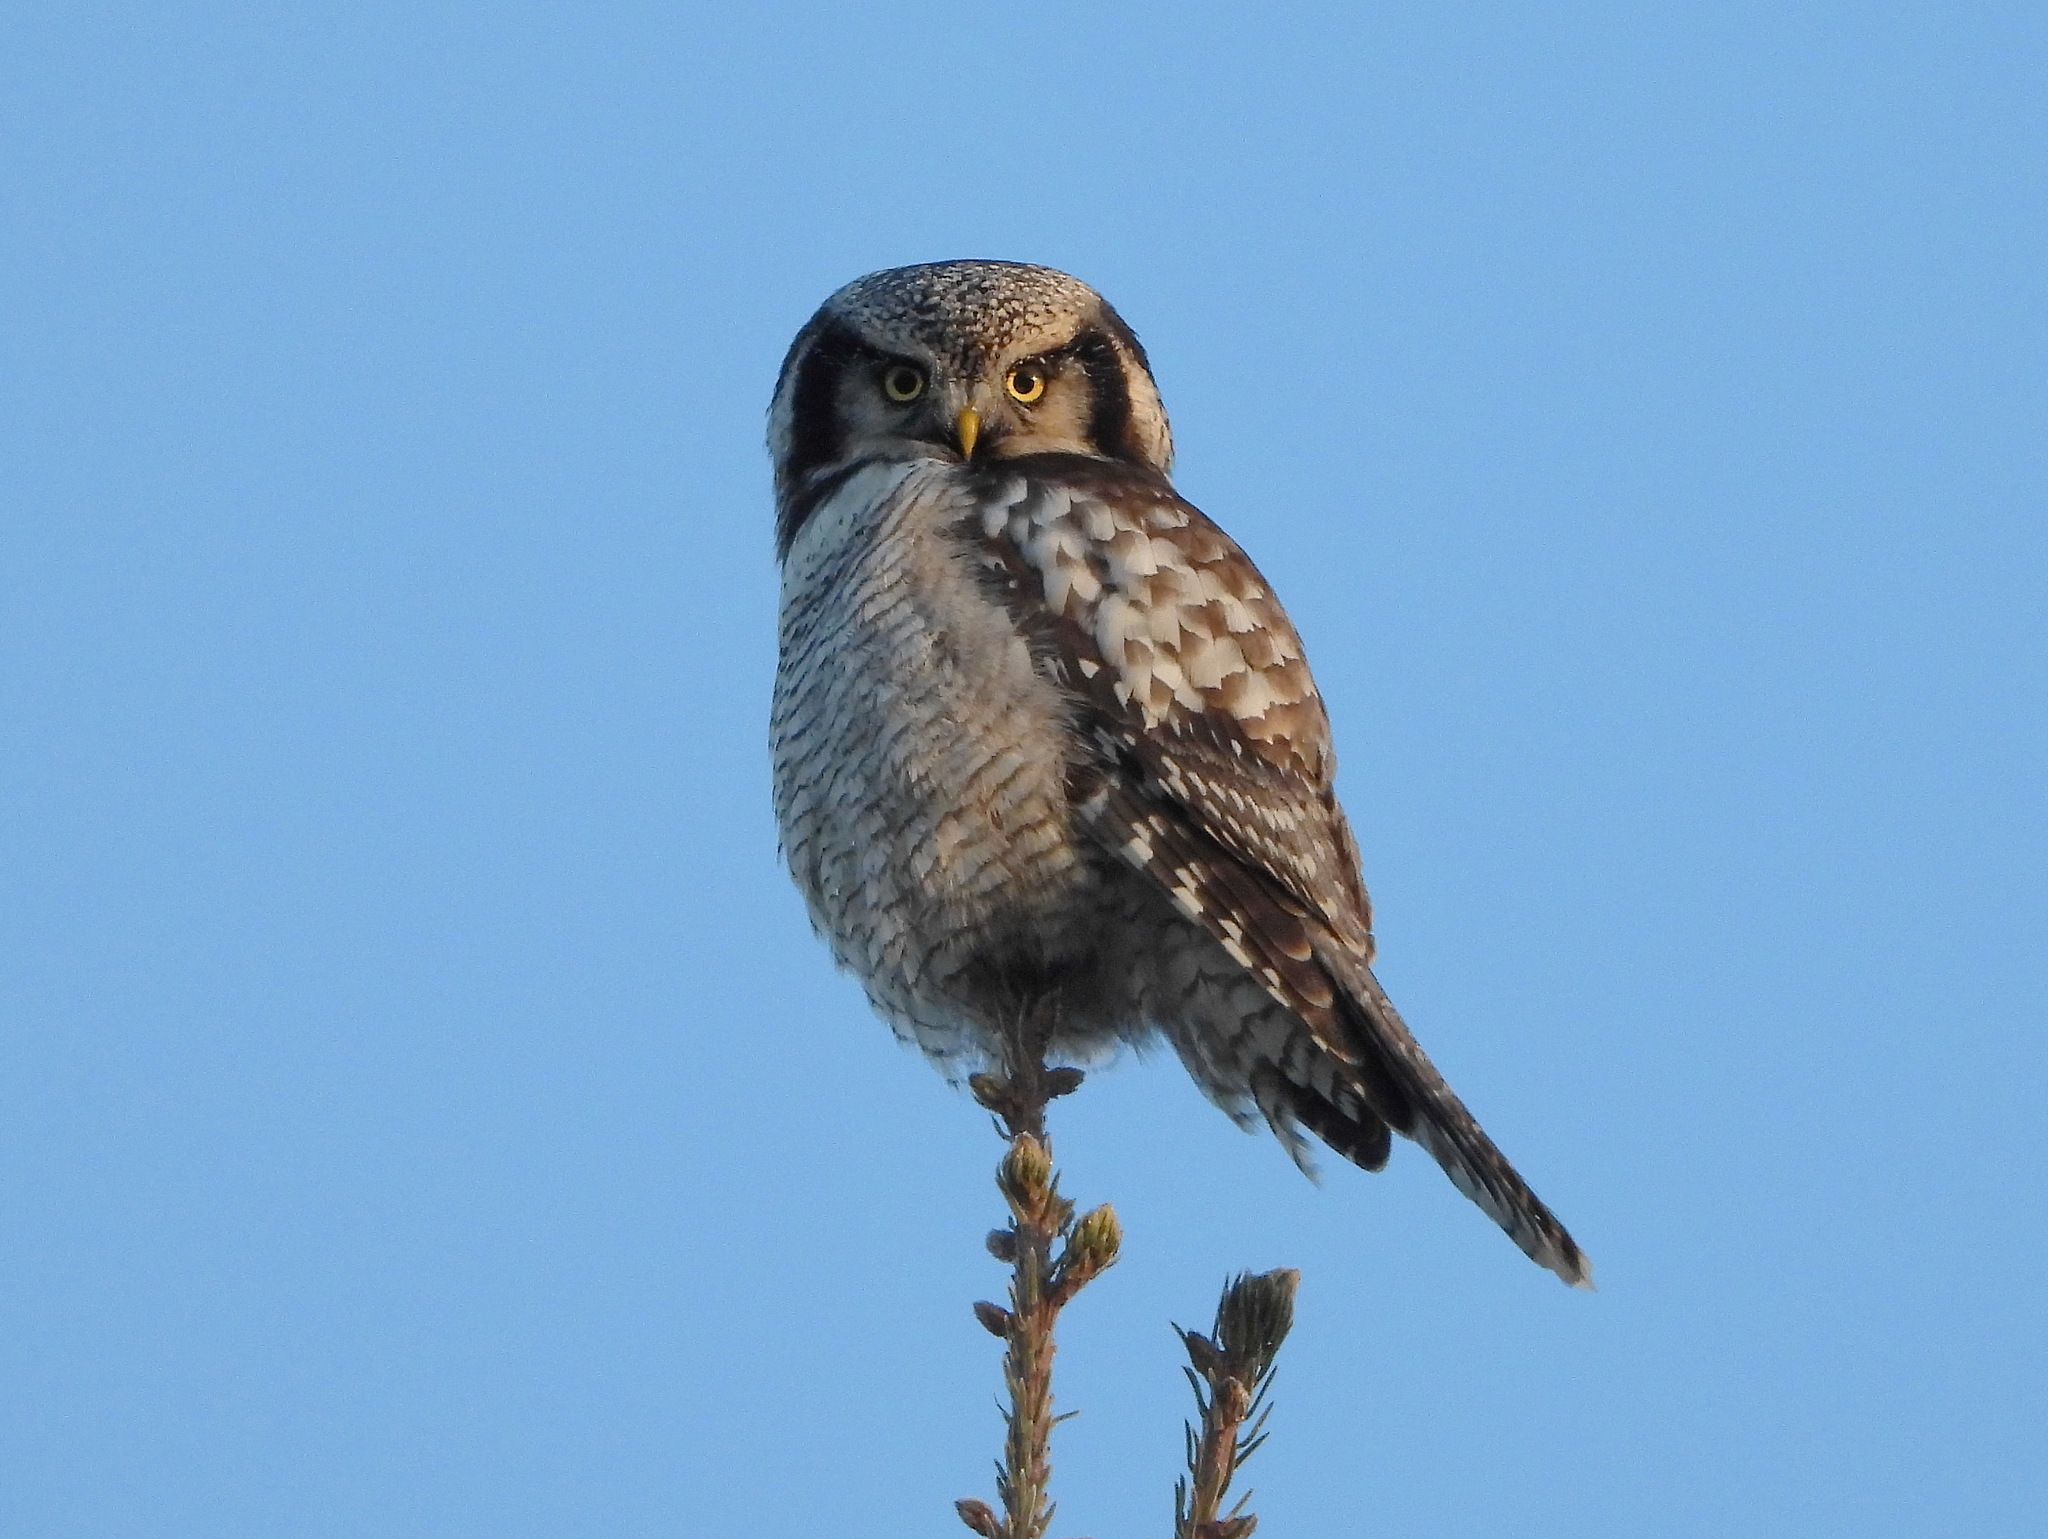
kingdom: Animalia
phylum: Chordata
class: Aves
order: Strigiformes
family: Strigidae
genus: Surnia
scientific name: Surnia ulula
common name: Northern hawk-owl
